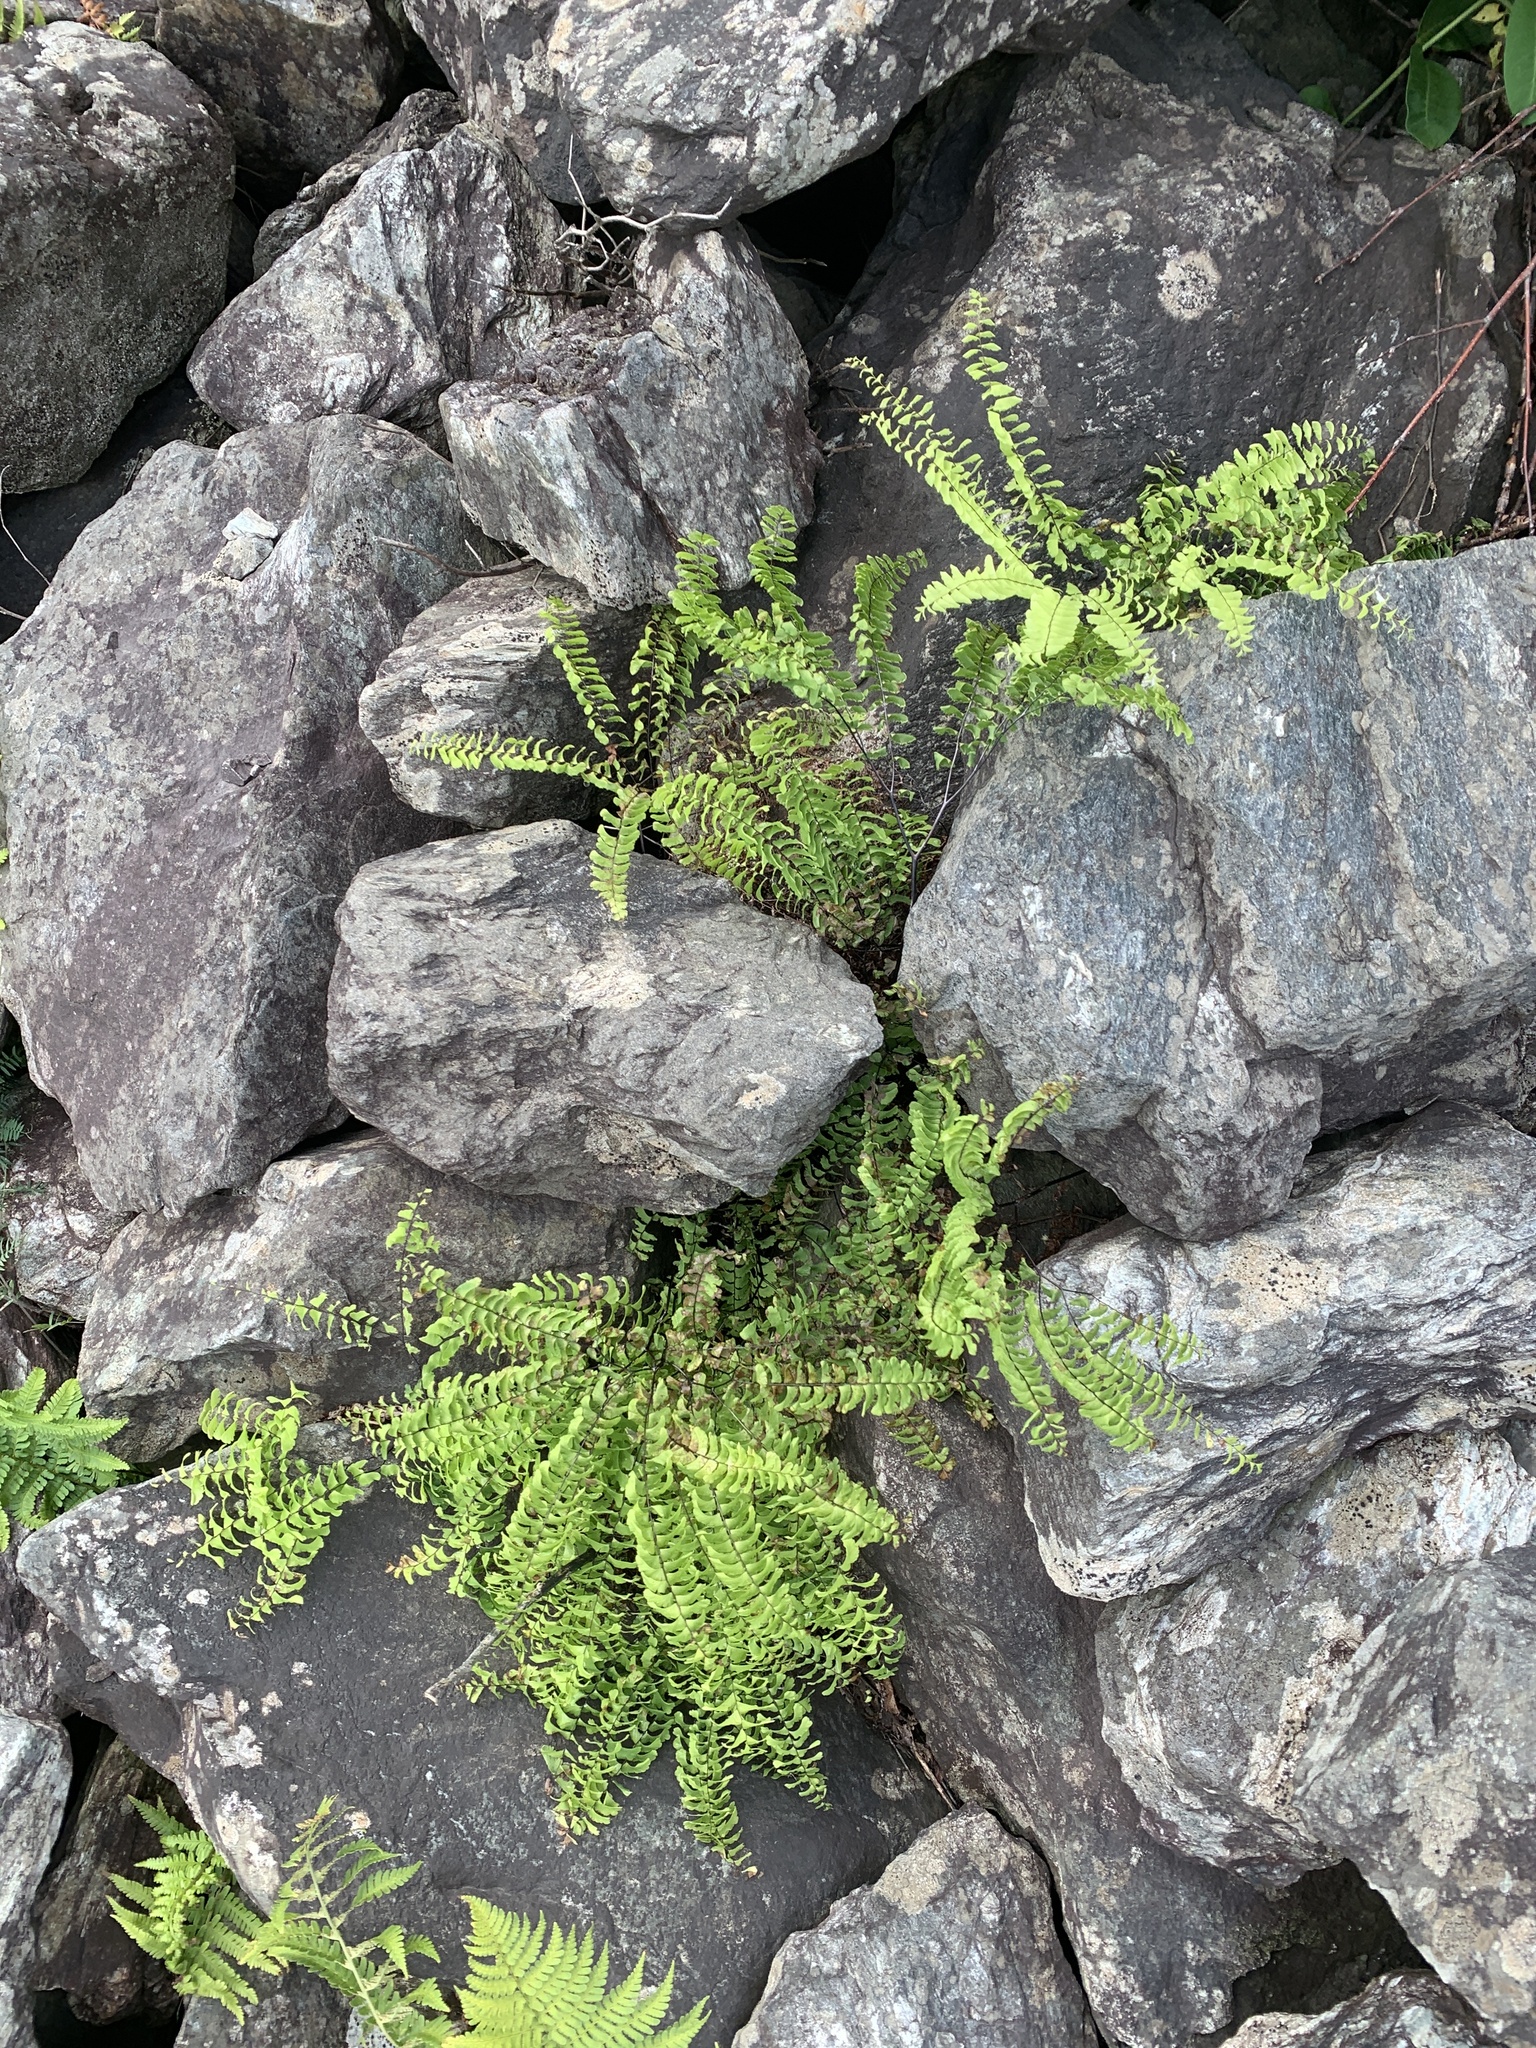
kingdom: Plantae
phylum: Tracheophyta
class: Polypodiopsida
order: Polypodiales
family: Pteridaceae
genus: Adiantum
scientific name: Adiantum pedatum
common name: Five-finger fern
